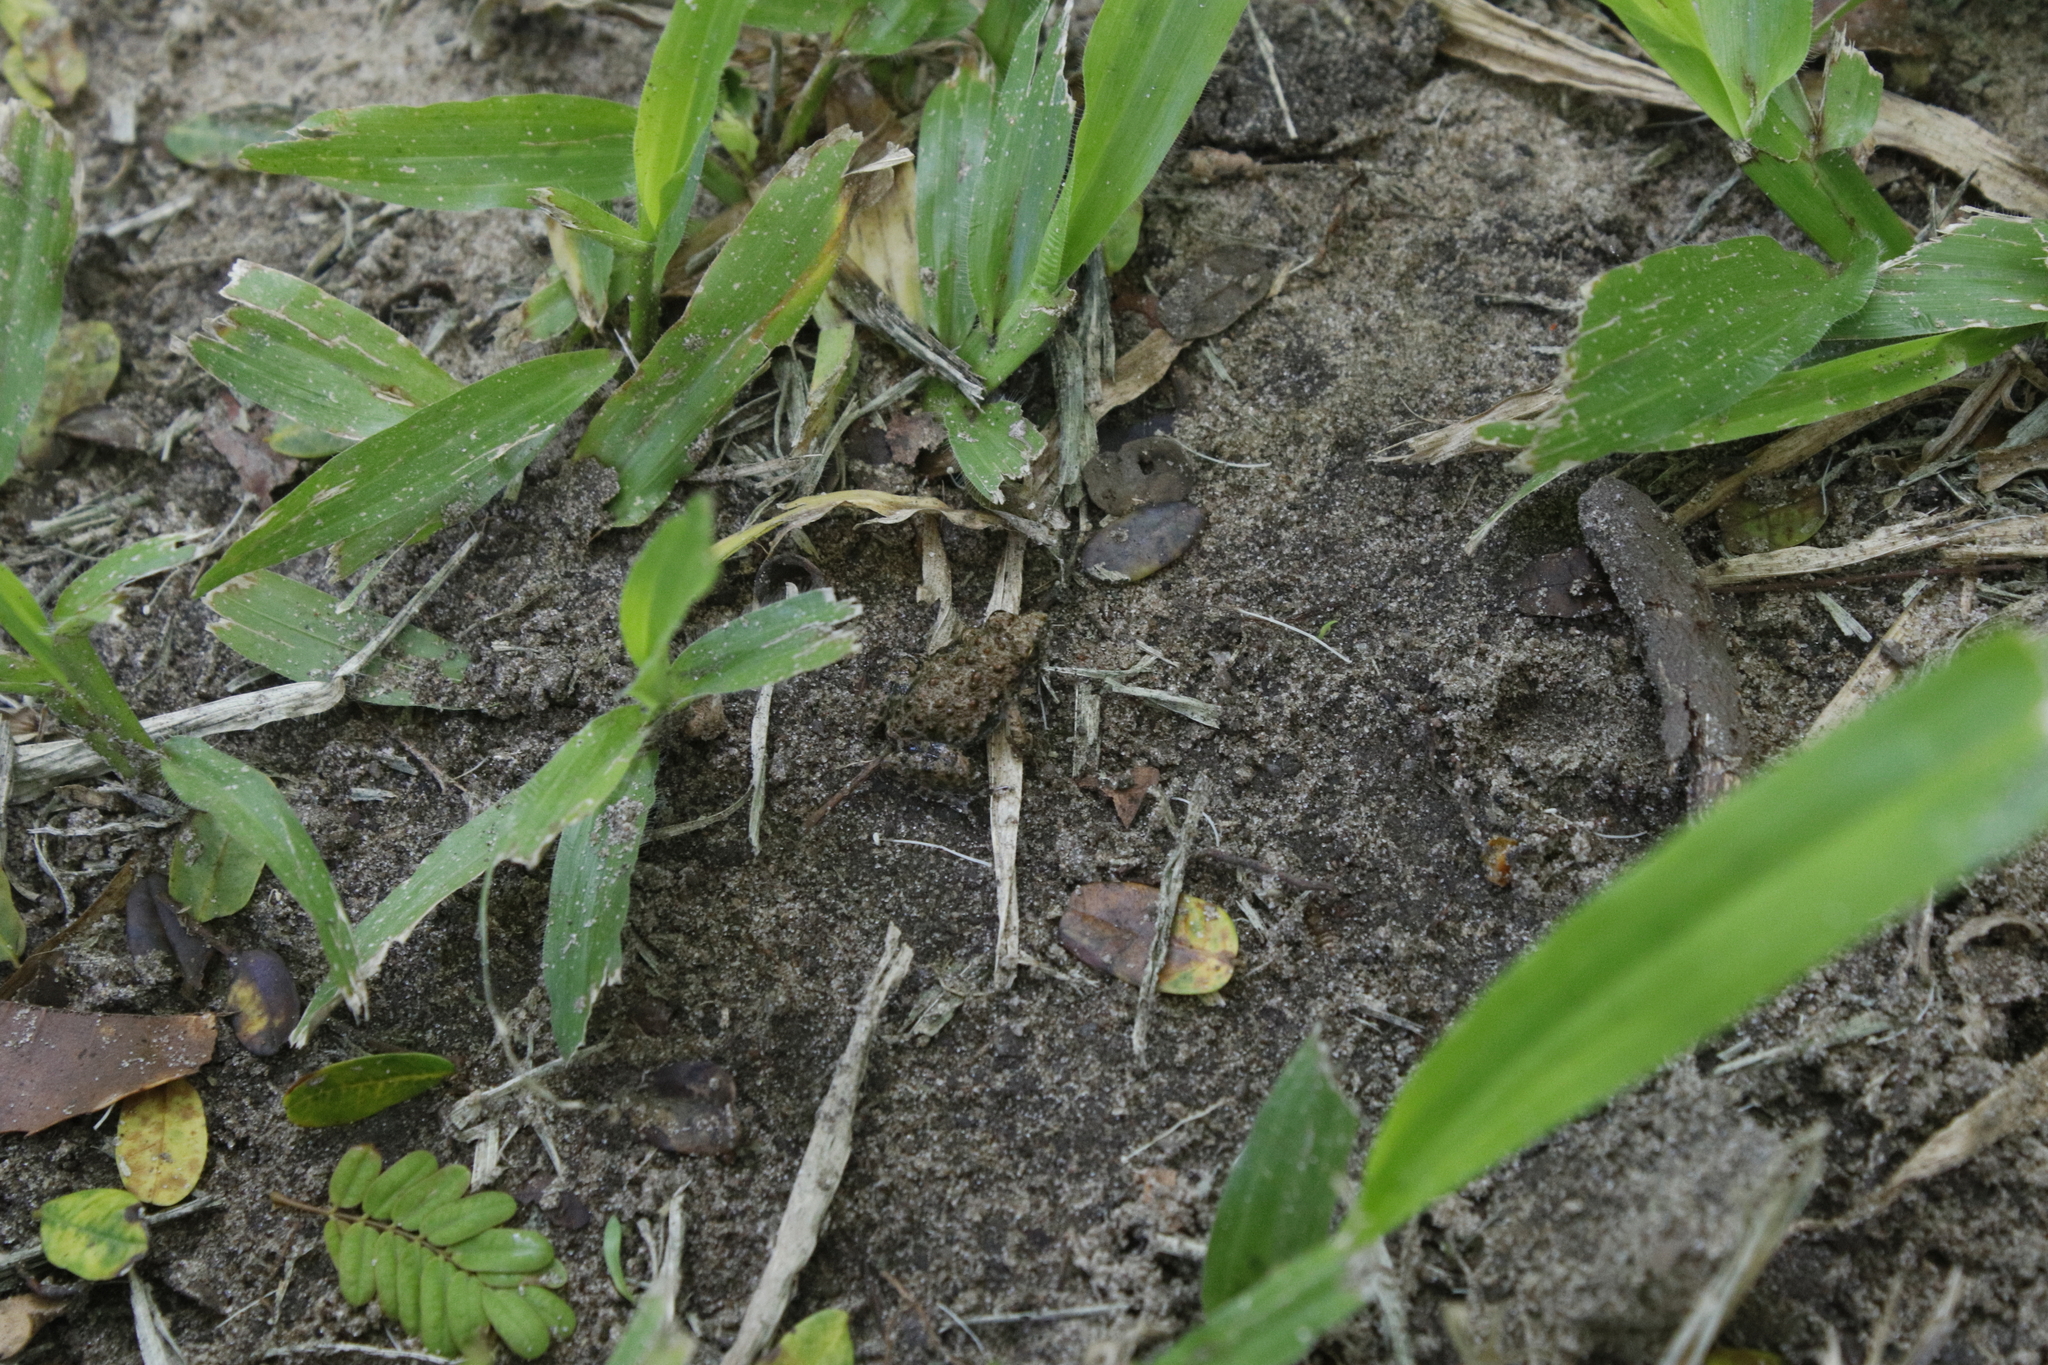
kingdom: Animalia
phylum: Chordata
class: Amphibia
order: Anura
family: Phrynobatrachidae
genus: Phrynobatrachus
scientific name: Phrynobatrachus natalensis
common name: Snoring puddle frog
